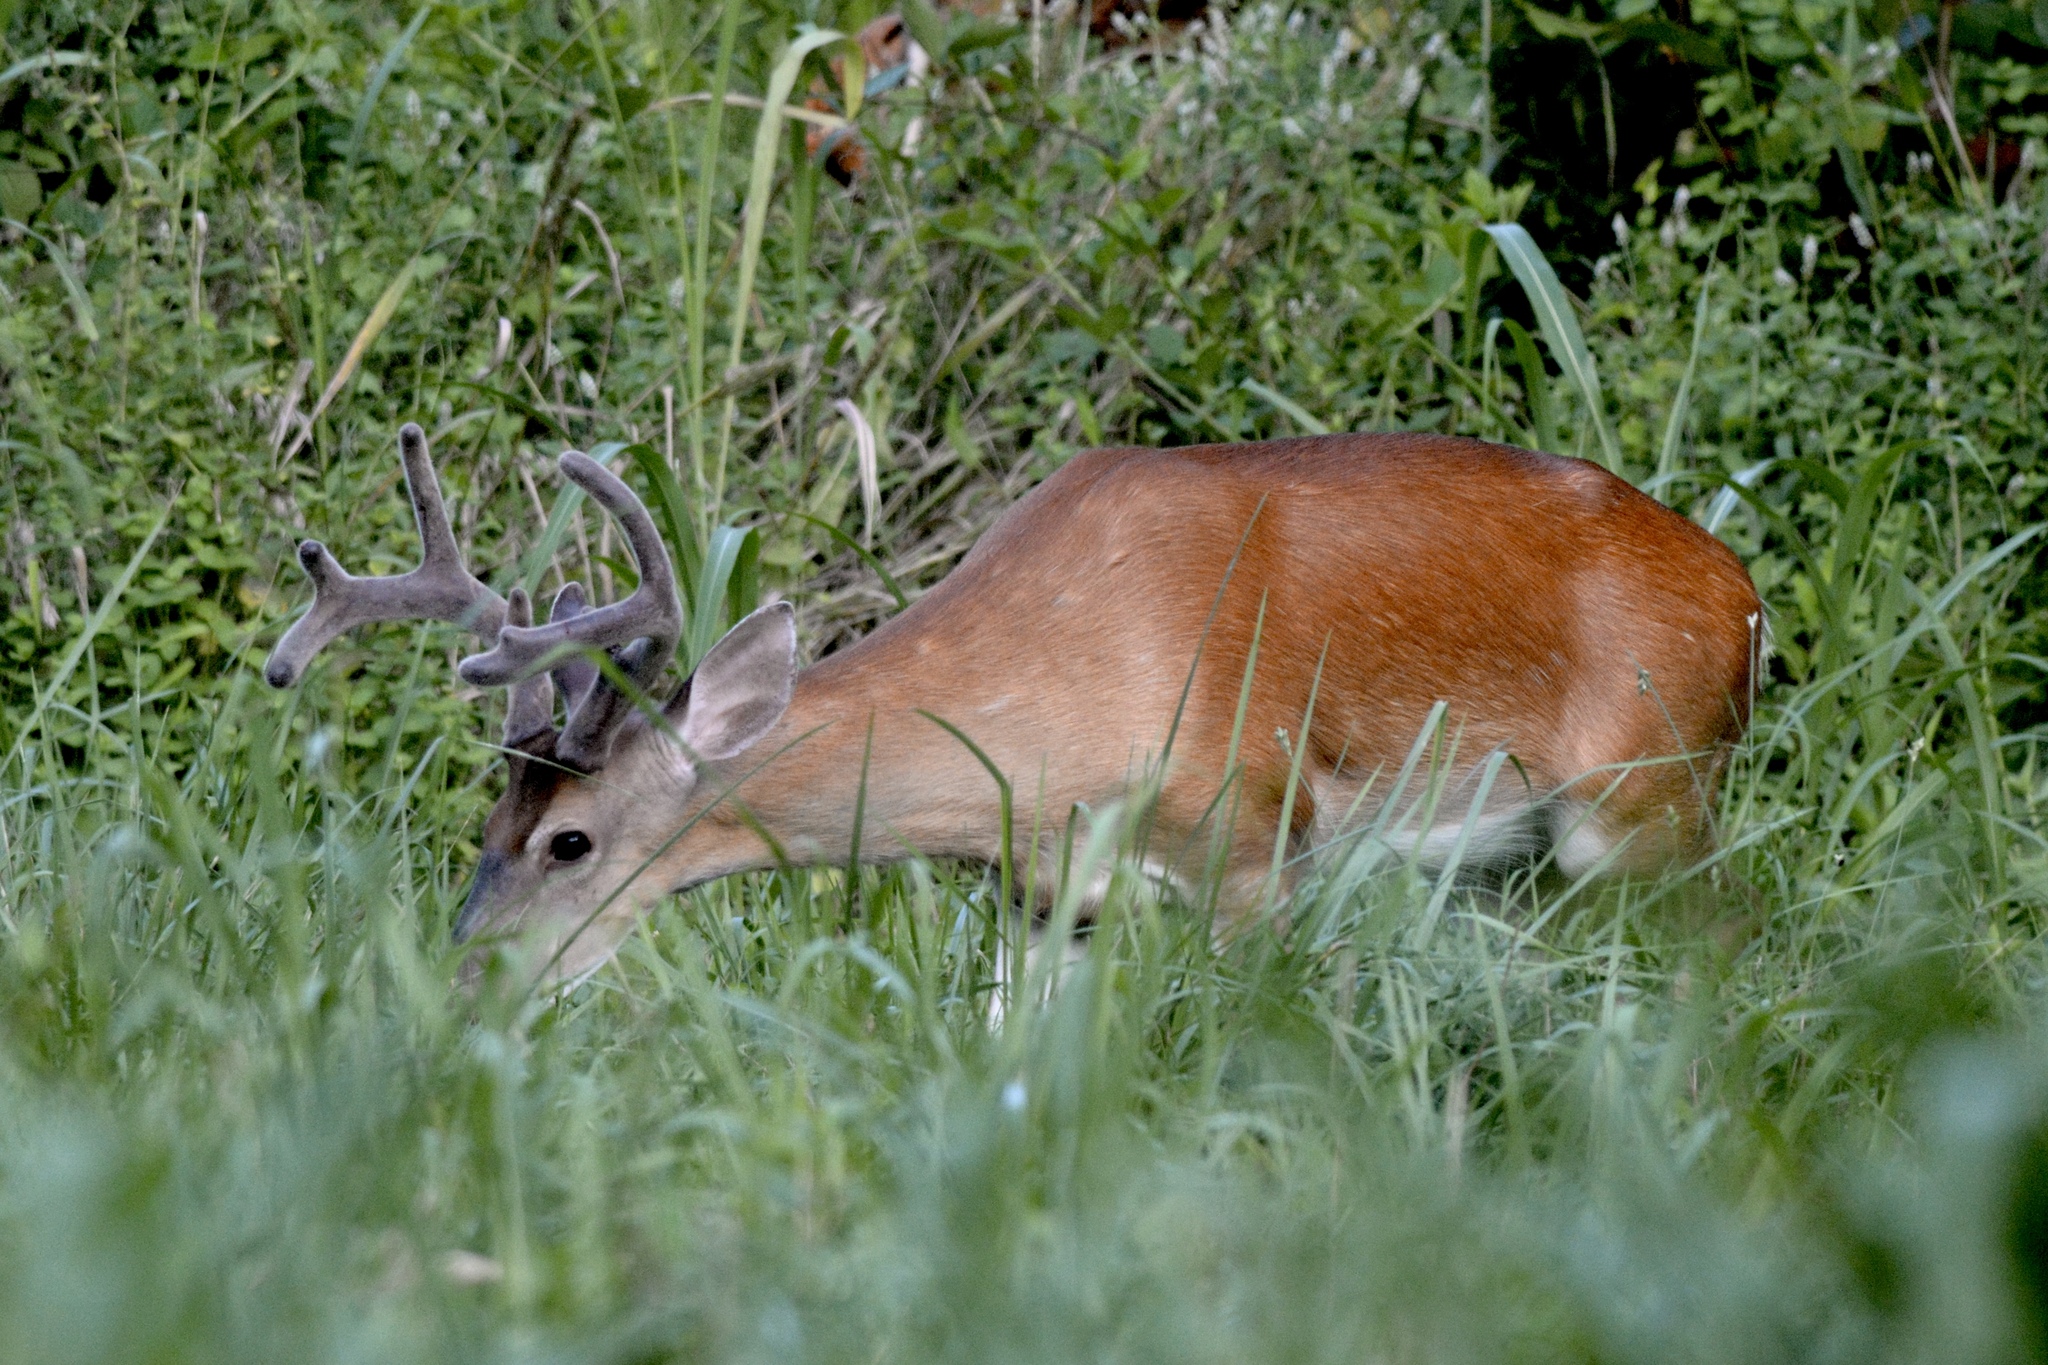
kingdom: Animalia
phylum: Chordata
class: Mammalia
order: Artiodactyla
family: Cervidae
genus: Odocoileus
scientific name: Odocoileus virginianus
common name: White-tailed deer
